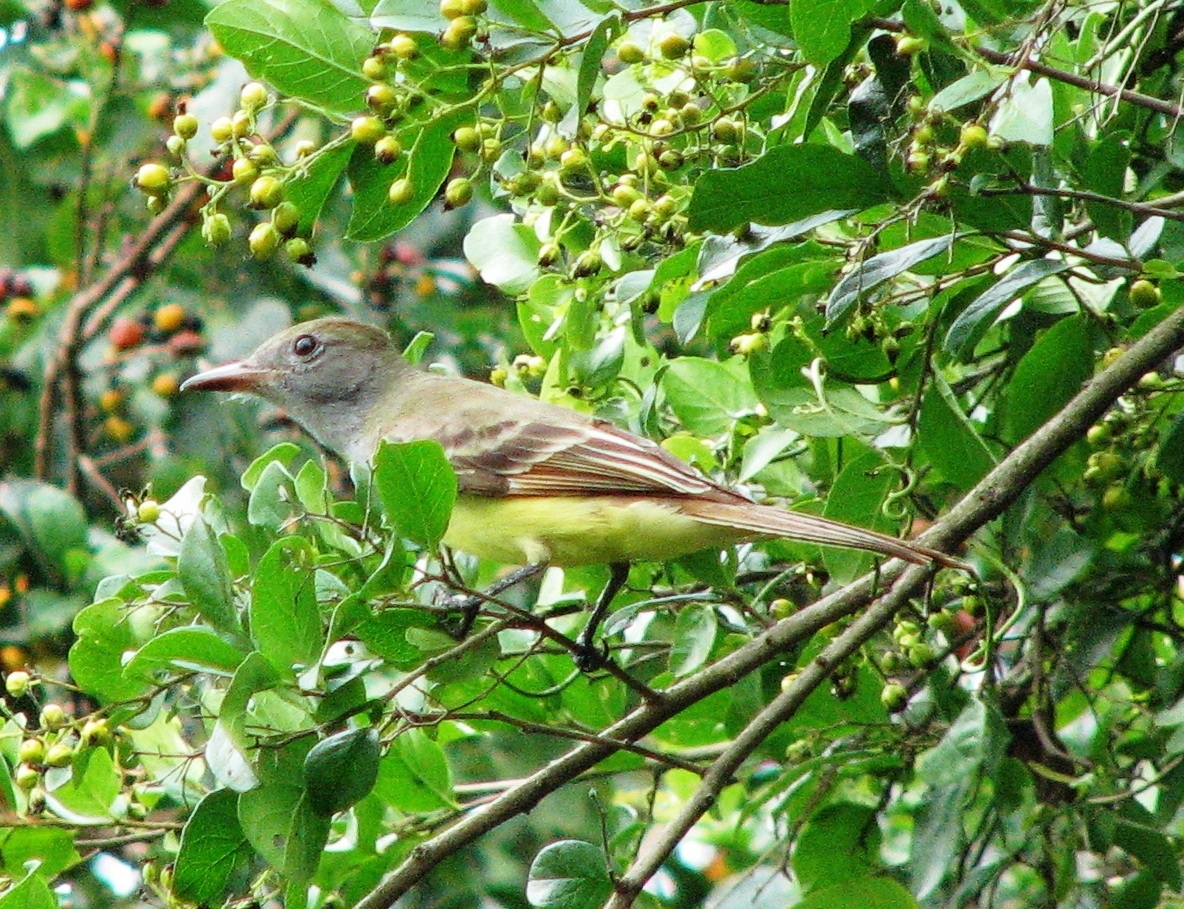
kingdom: Animalia
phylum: Chordata
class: Aves
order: Passeriformes
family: Tyrannidae
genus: Myiarchus
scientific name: Myiarchus crinitus
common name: Great crested flycatcher
